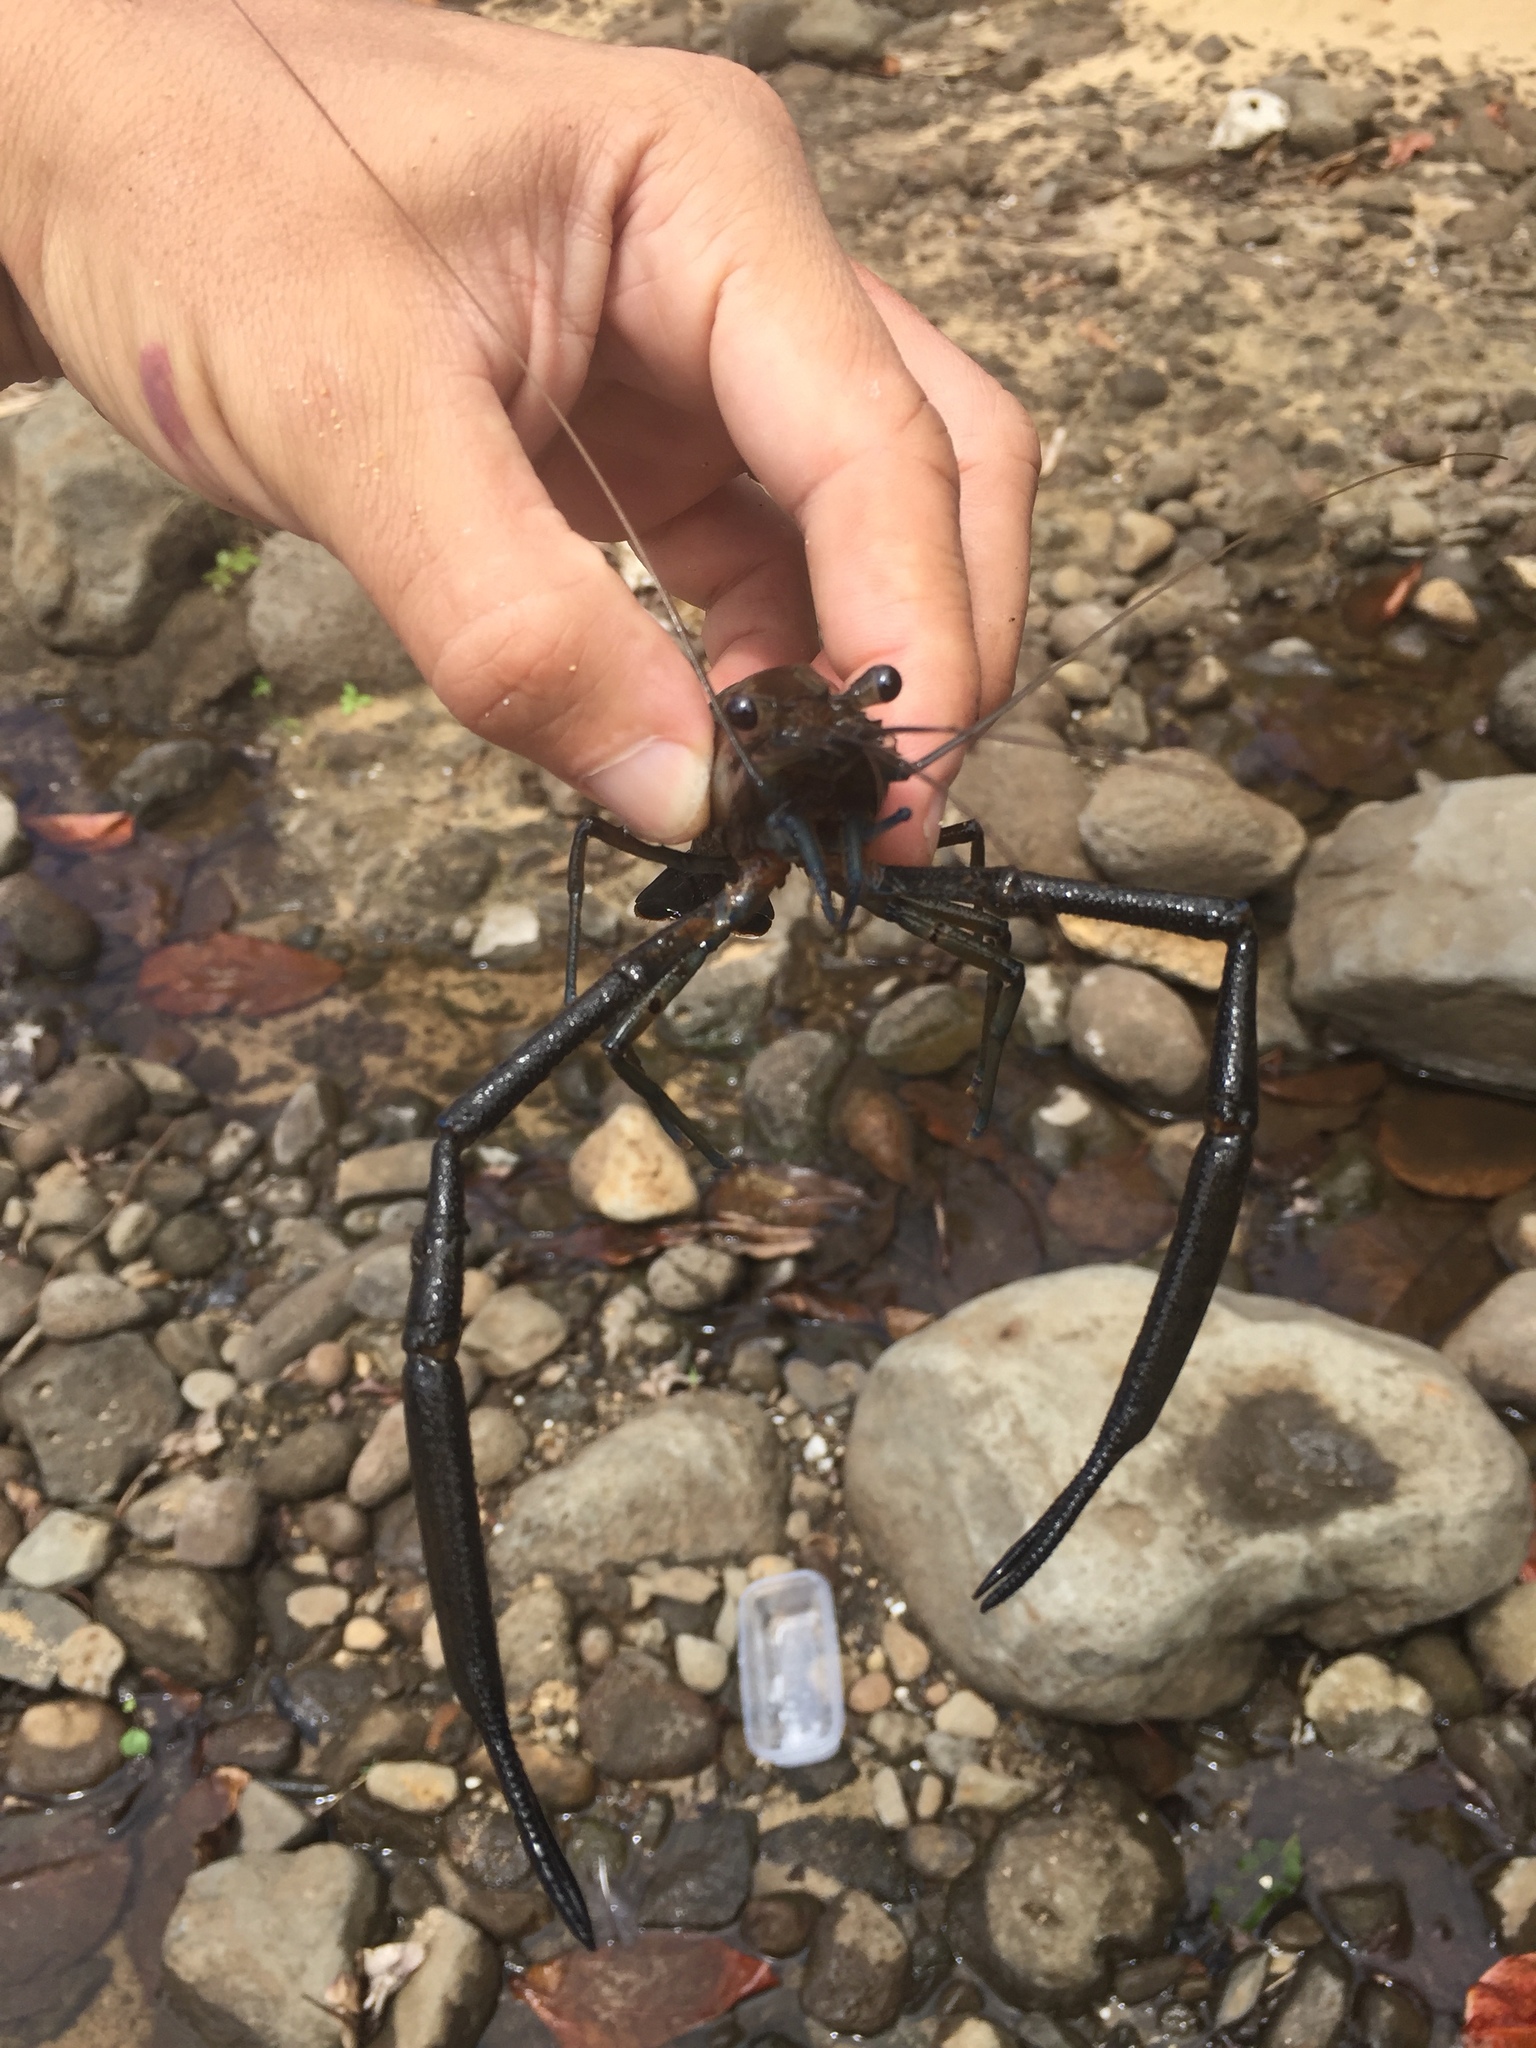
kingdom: Animalia
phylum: Arthropoda
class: Malacostraca
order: Decapoda
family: Palaemonidae
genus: Macrobrachium
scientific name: Macrobrachium lar
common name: Monkey river prawn
